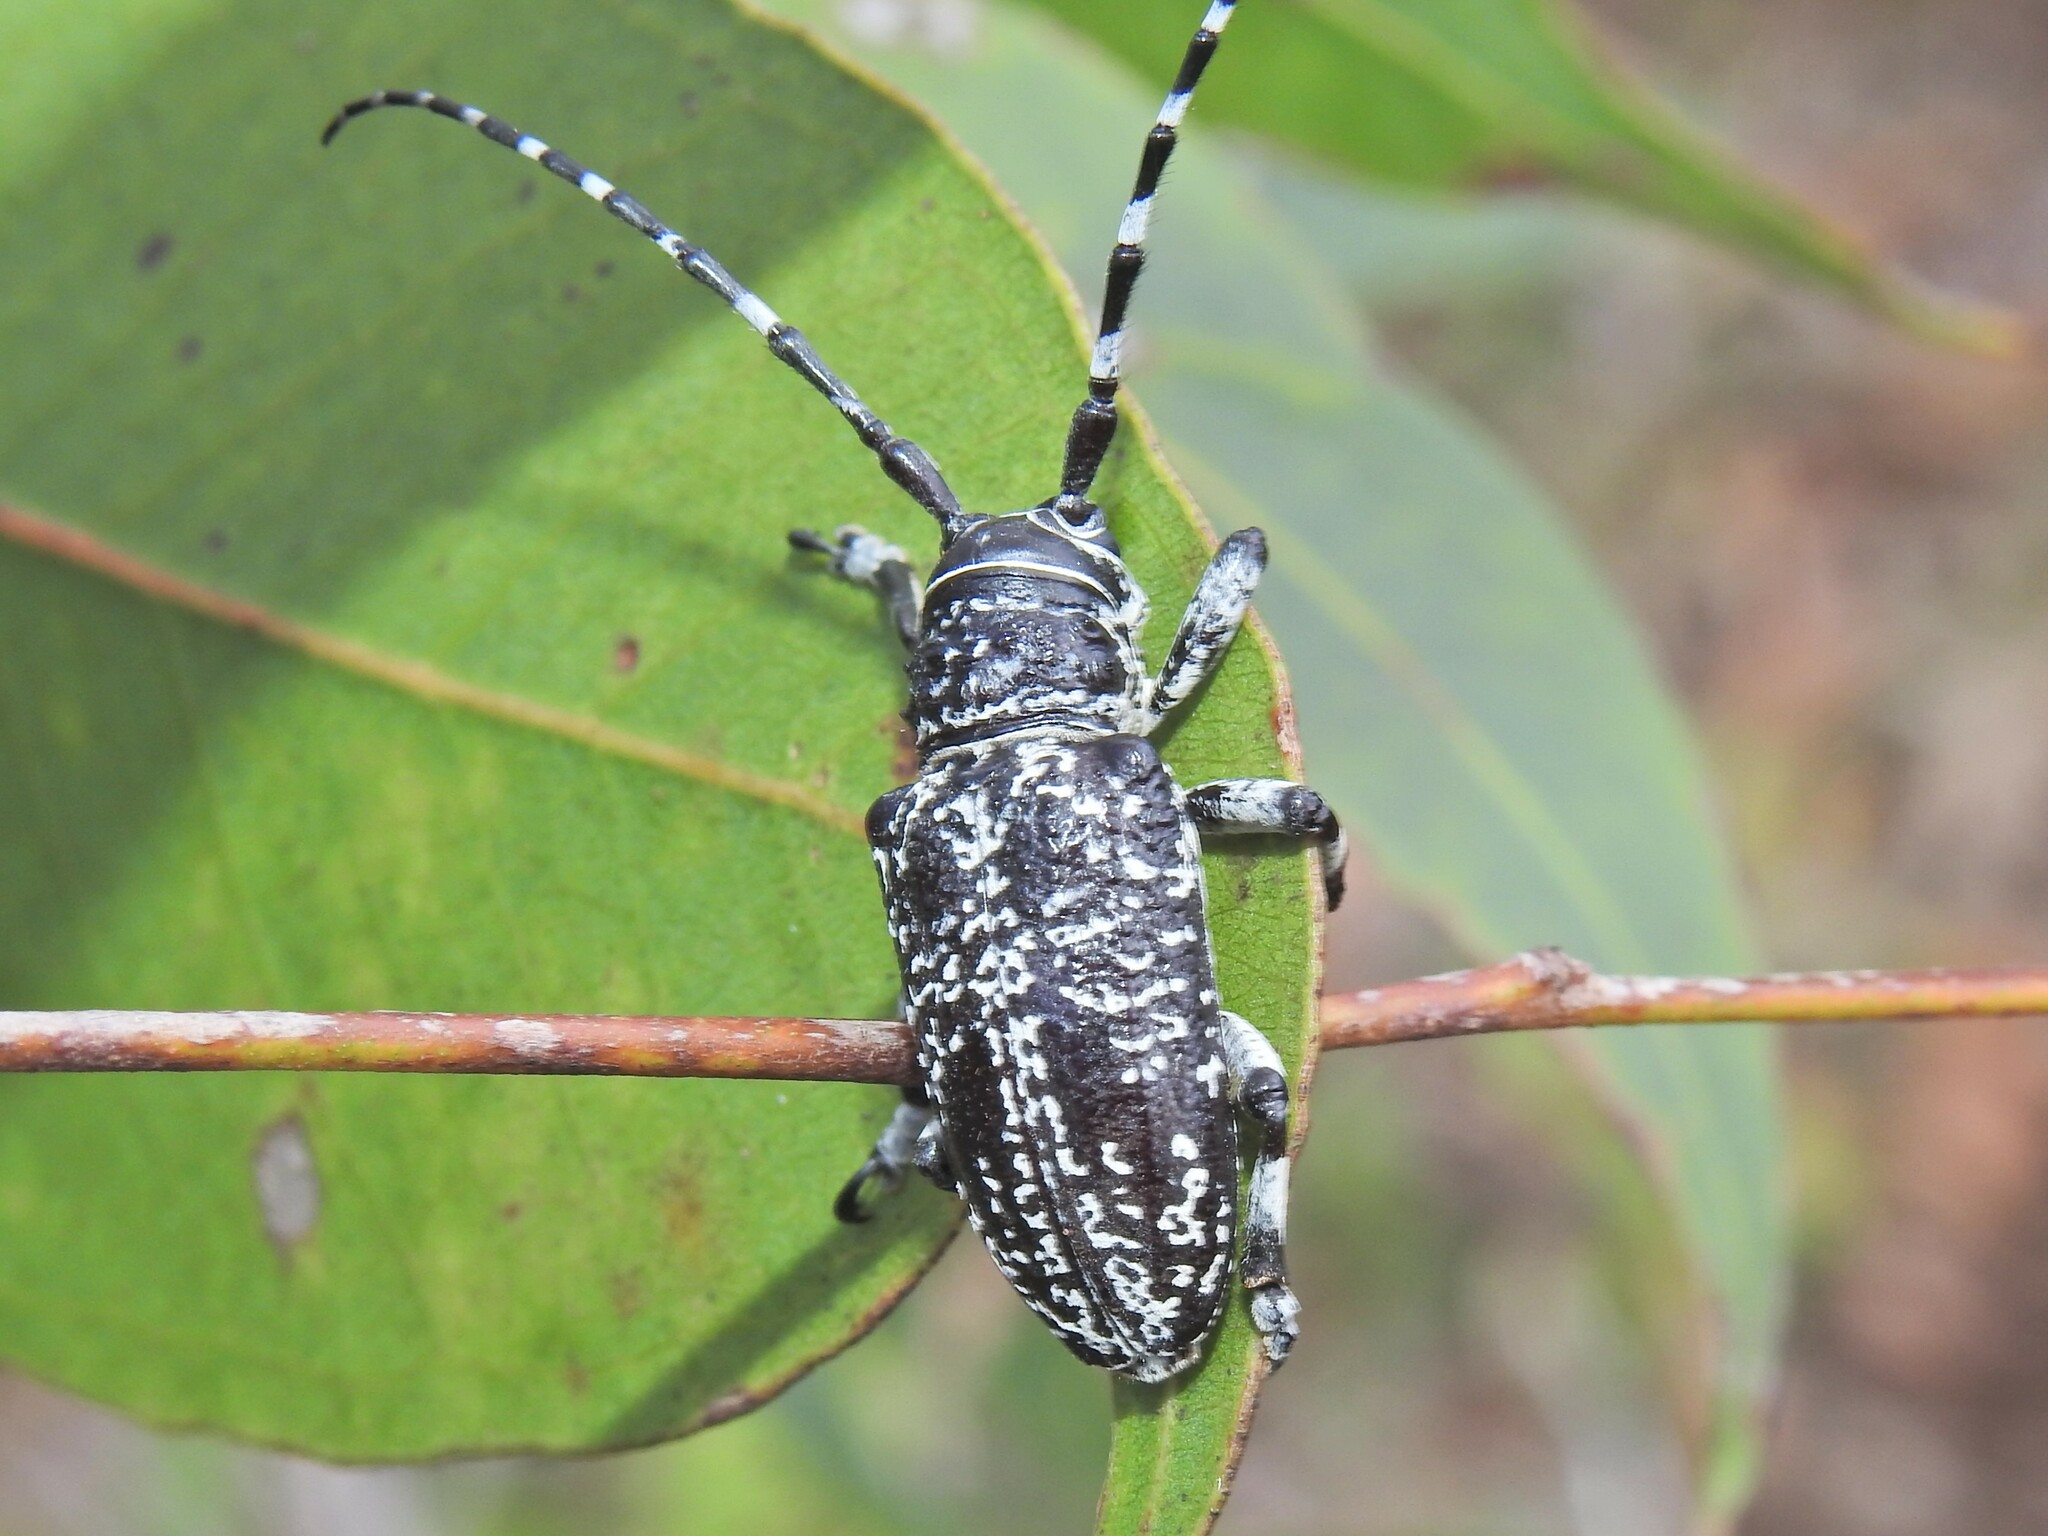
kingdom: Animalia
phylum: Arthropoda
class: Insecta
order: Coleoptera
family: Cerambycidae
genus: Rhytiphora
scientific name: Rhytiphora vermicularia
